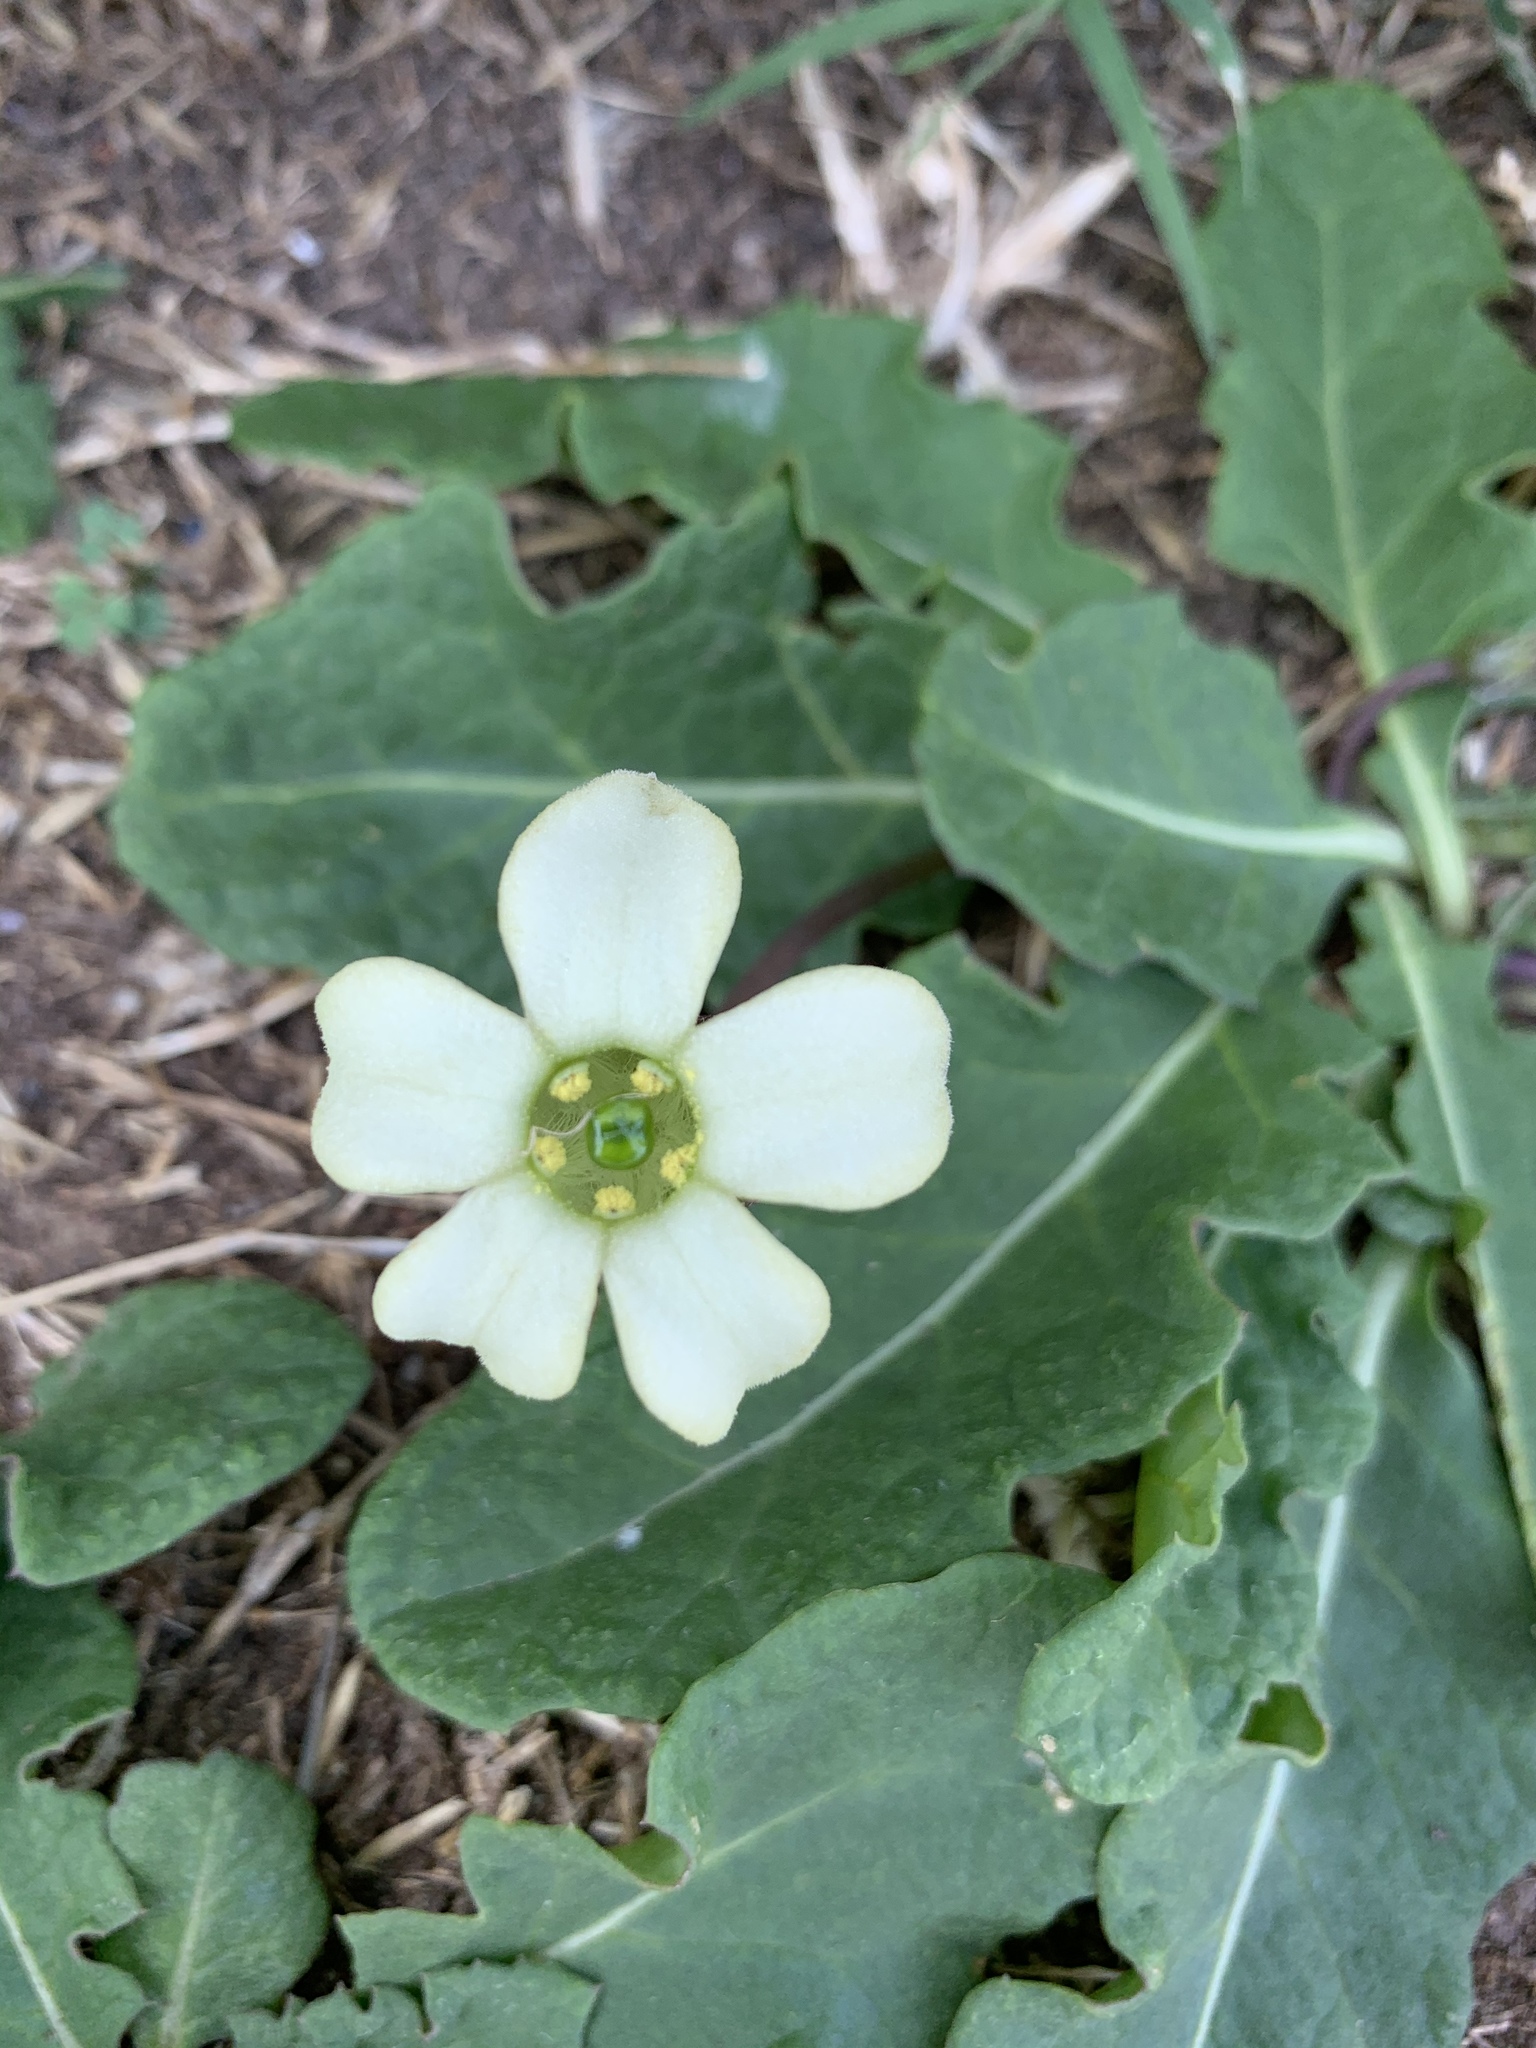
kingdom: Plantae
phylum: Tracheophyta
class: Magnoliopsida
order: Solanales
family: Solanaceae
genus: Jaborosa
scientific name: Jaborosa runcinata
